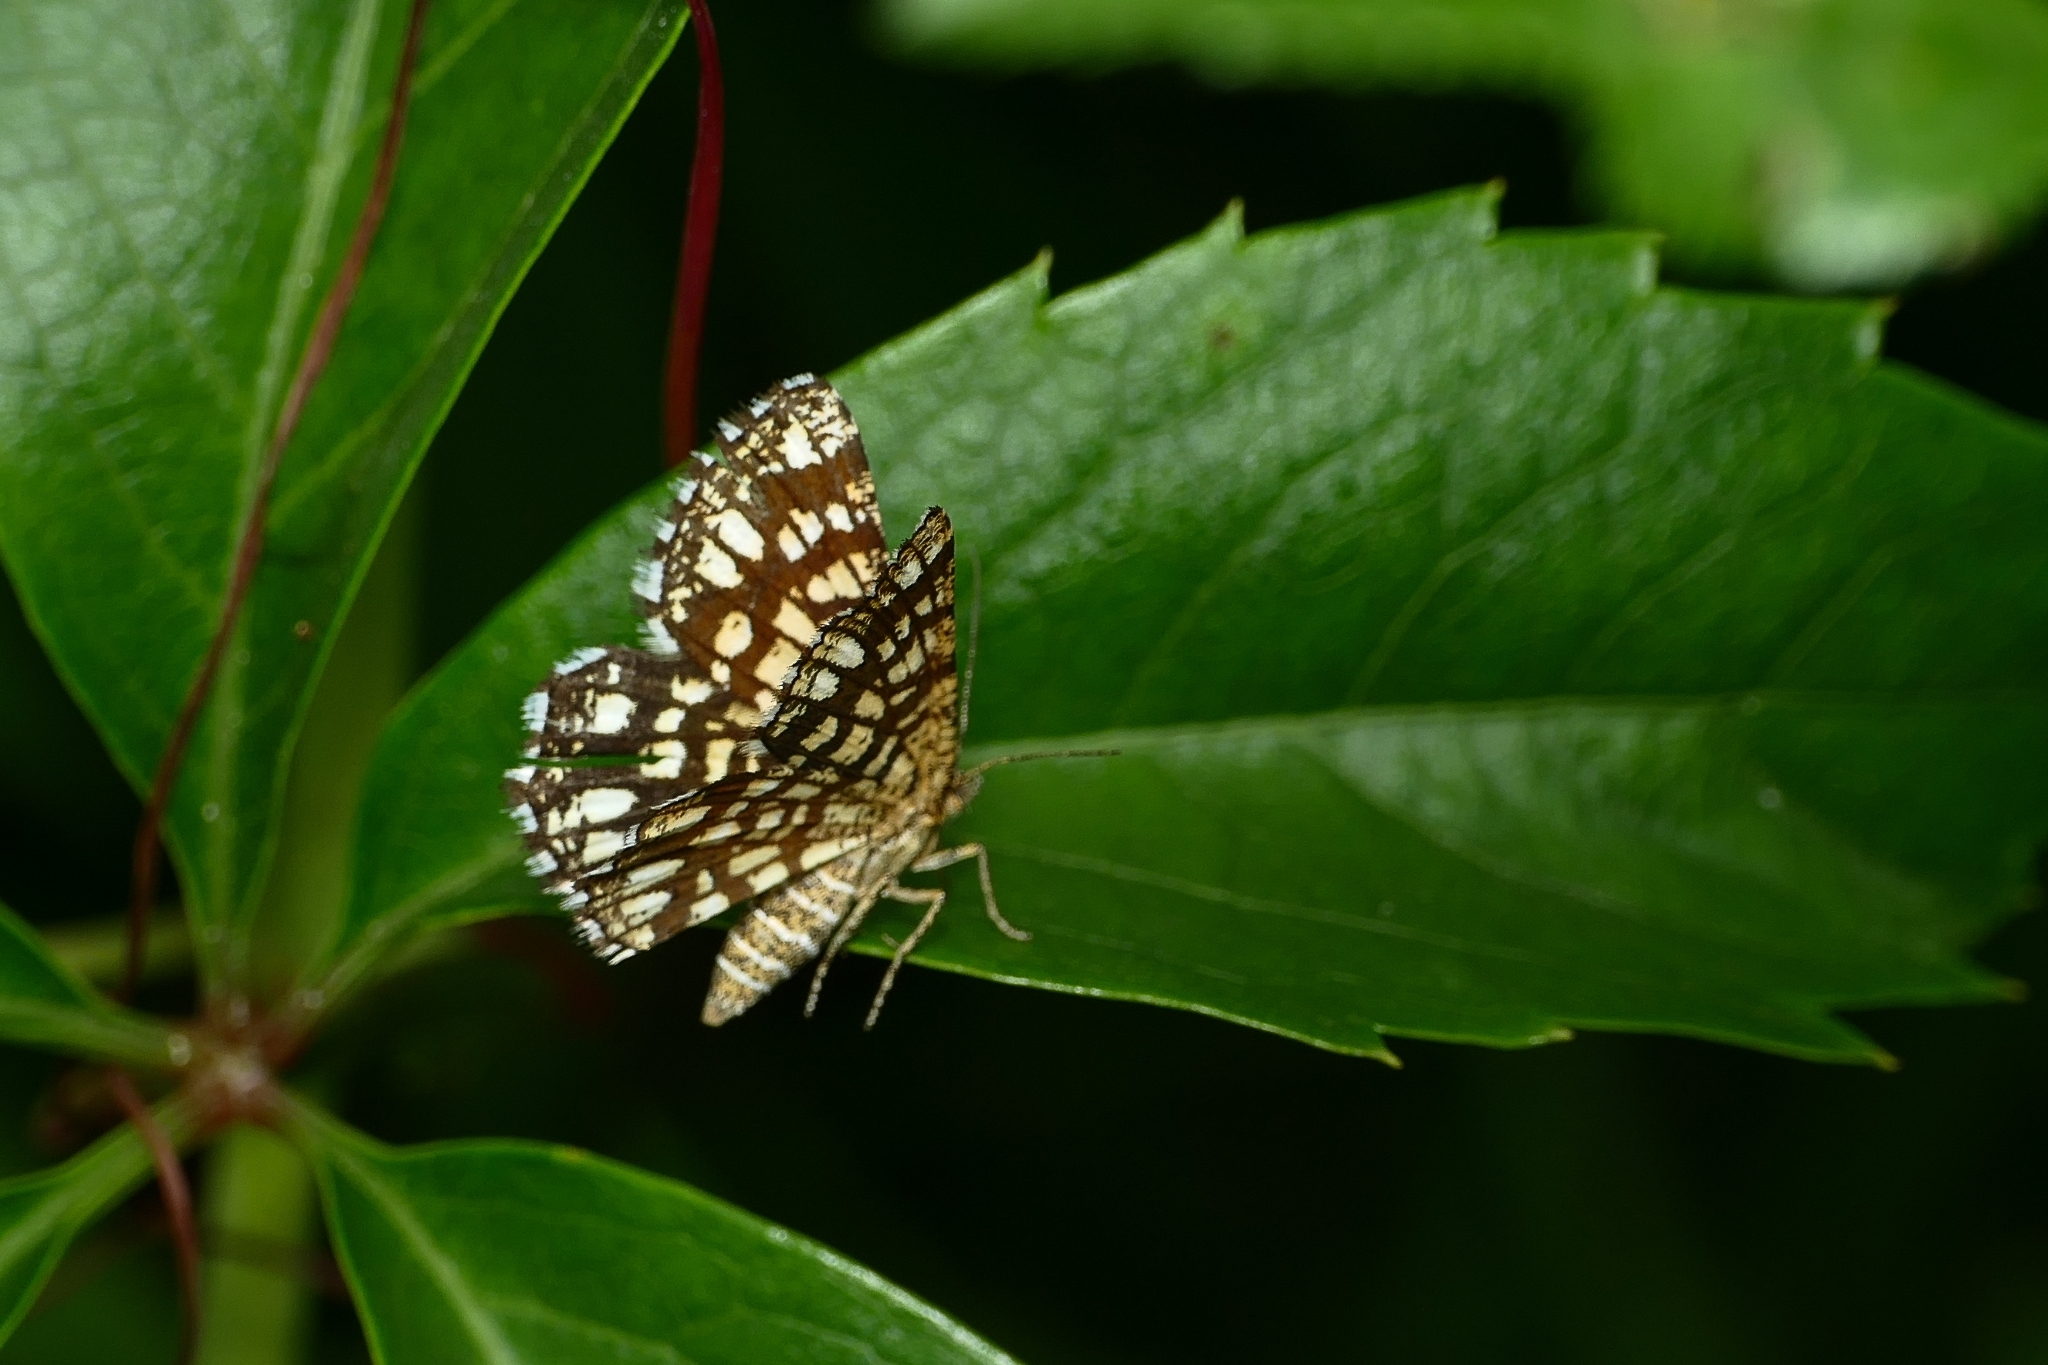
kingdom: Animalia
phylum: Arthropoda
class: Insecta
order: Lepidoptera
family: Geometridae
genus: Chiasmia
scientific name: Chiasmia clathrata
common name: Latticed heath
